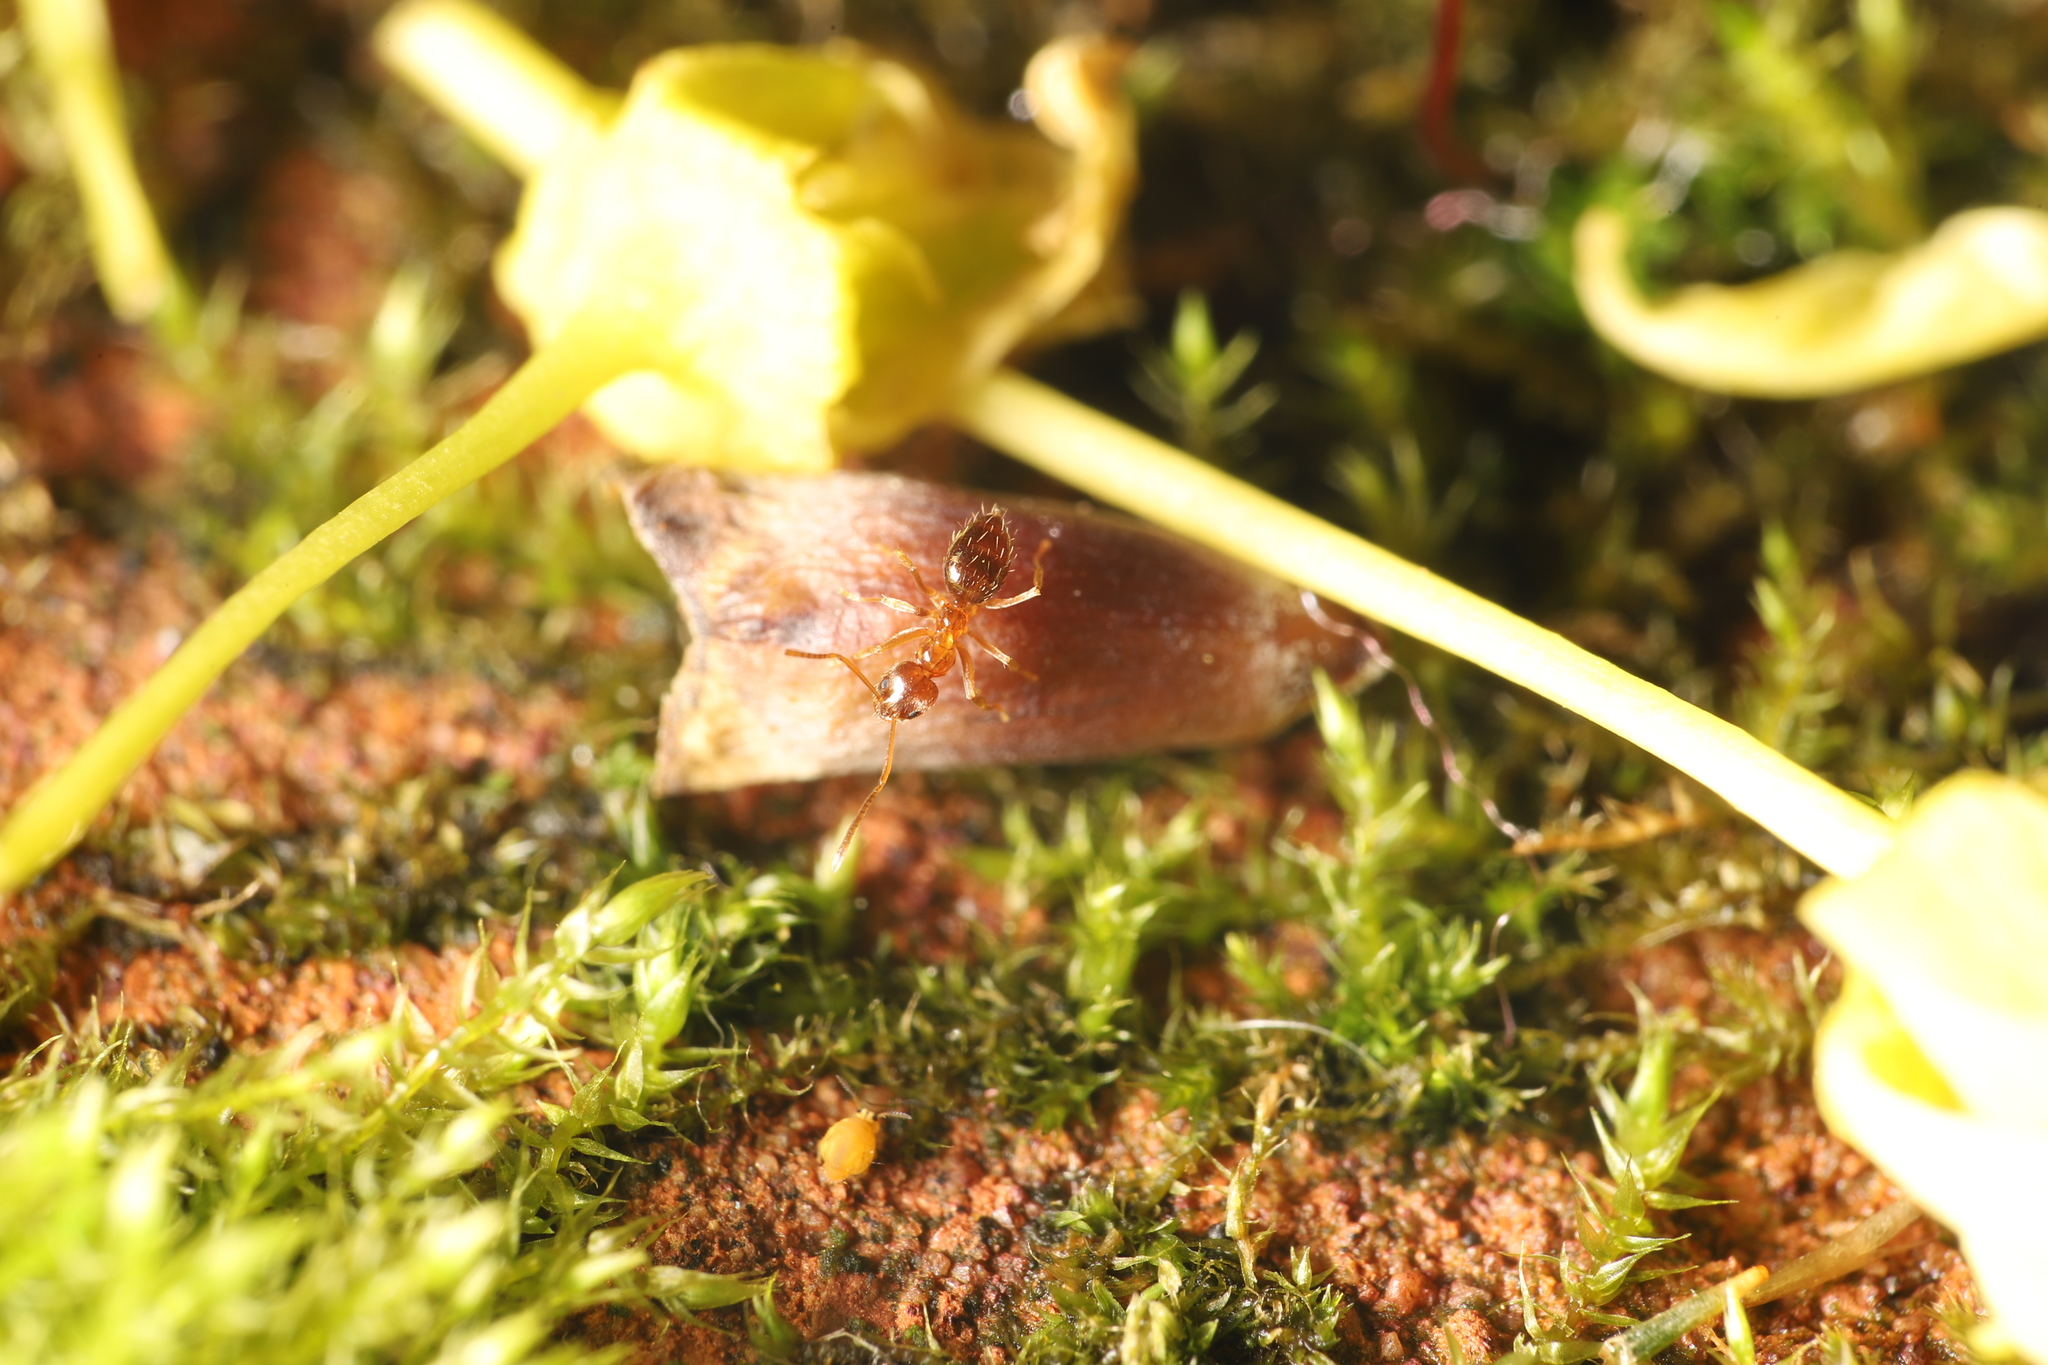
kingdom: Animalia
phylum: Arthropoda
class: Insecta
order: Hymenoptera
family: Formicidae
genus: Paratrechina
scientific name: Paratrechina flavipes
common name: Eastern asian formicine ant
